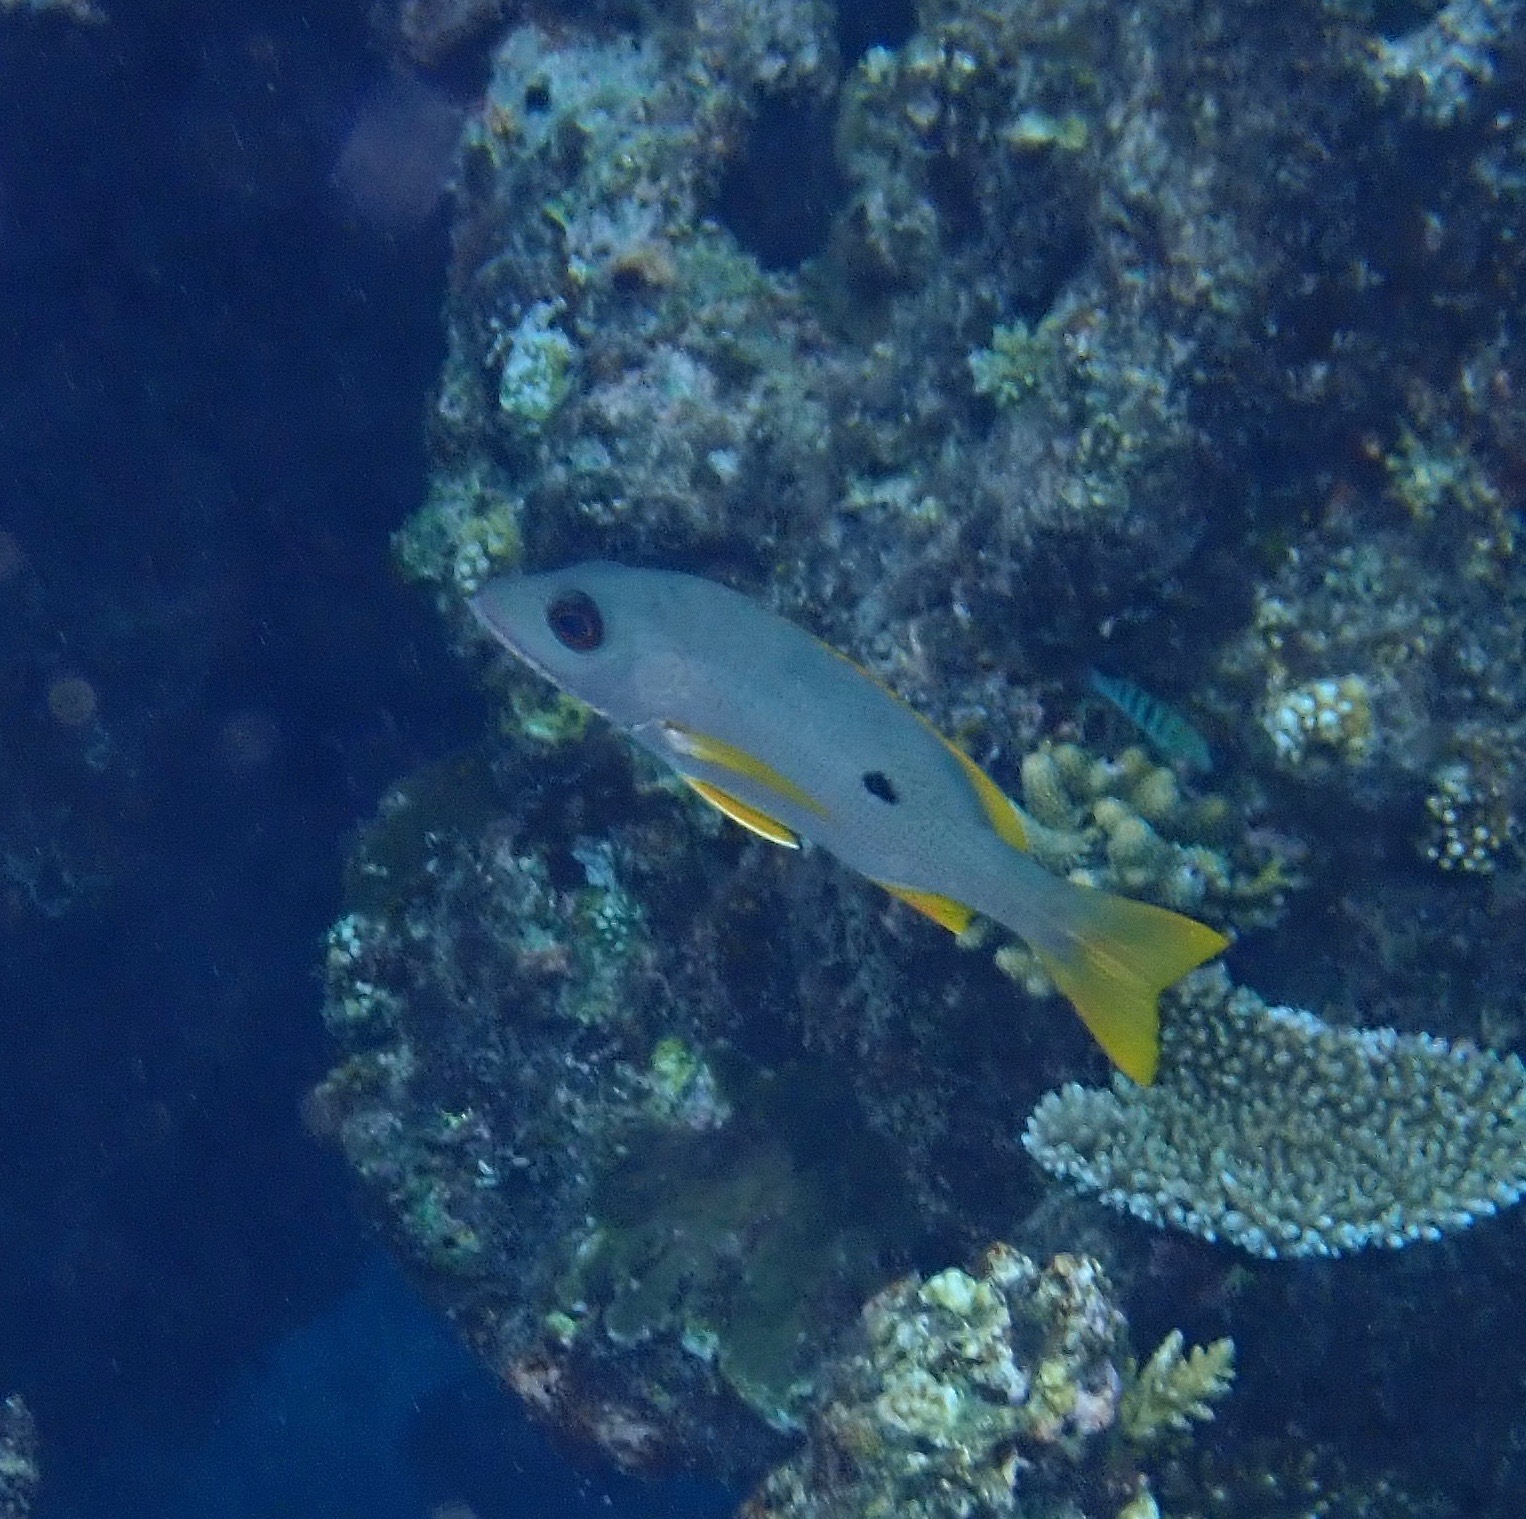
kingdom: Animalia
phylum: Chordata
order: Perciformes
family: Lutjanidae
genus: Lutjanus
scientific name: Lutjanus monostigma
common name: Onespot snapper
